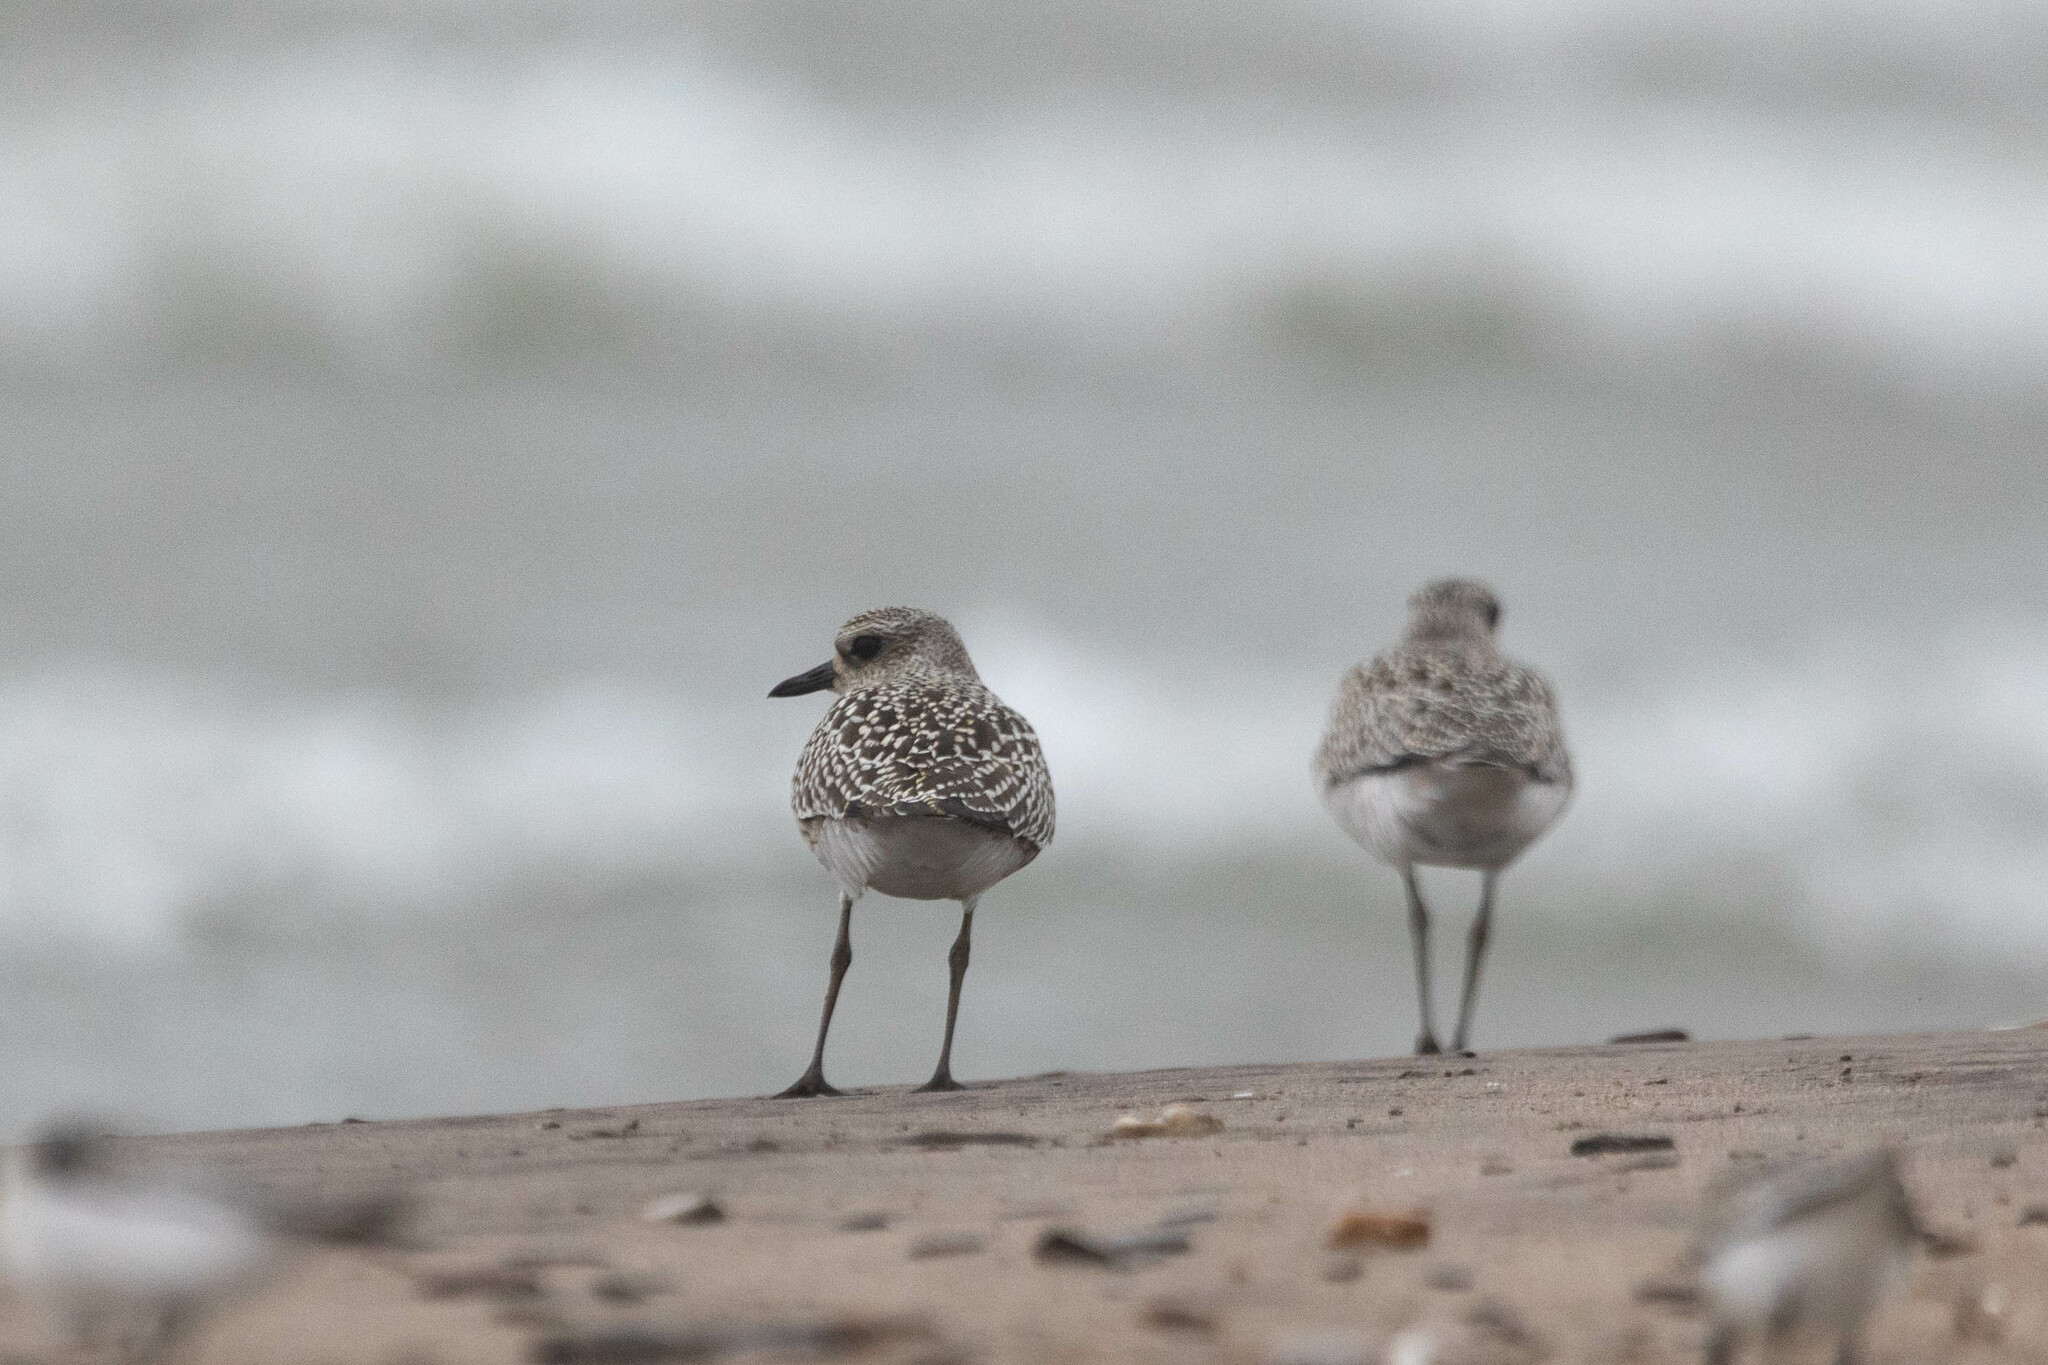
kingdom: Animalia
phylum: Chordata
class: Aves
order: Charadriiformes
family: Charadriidae
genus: Pluvialis
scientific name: Pluvialis squatarola
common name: Grey plover
